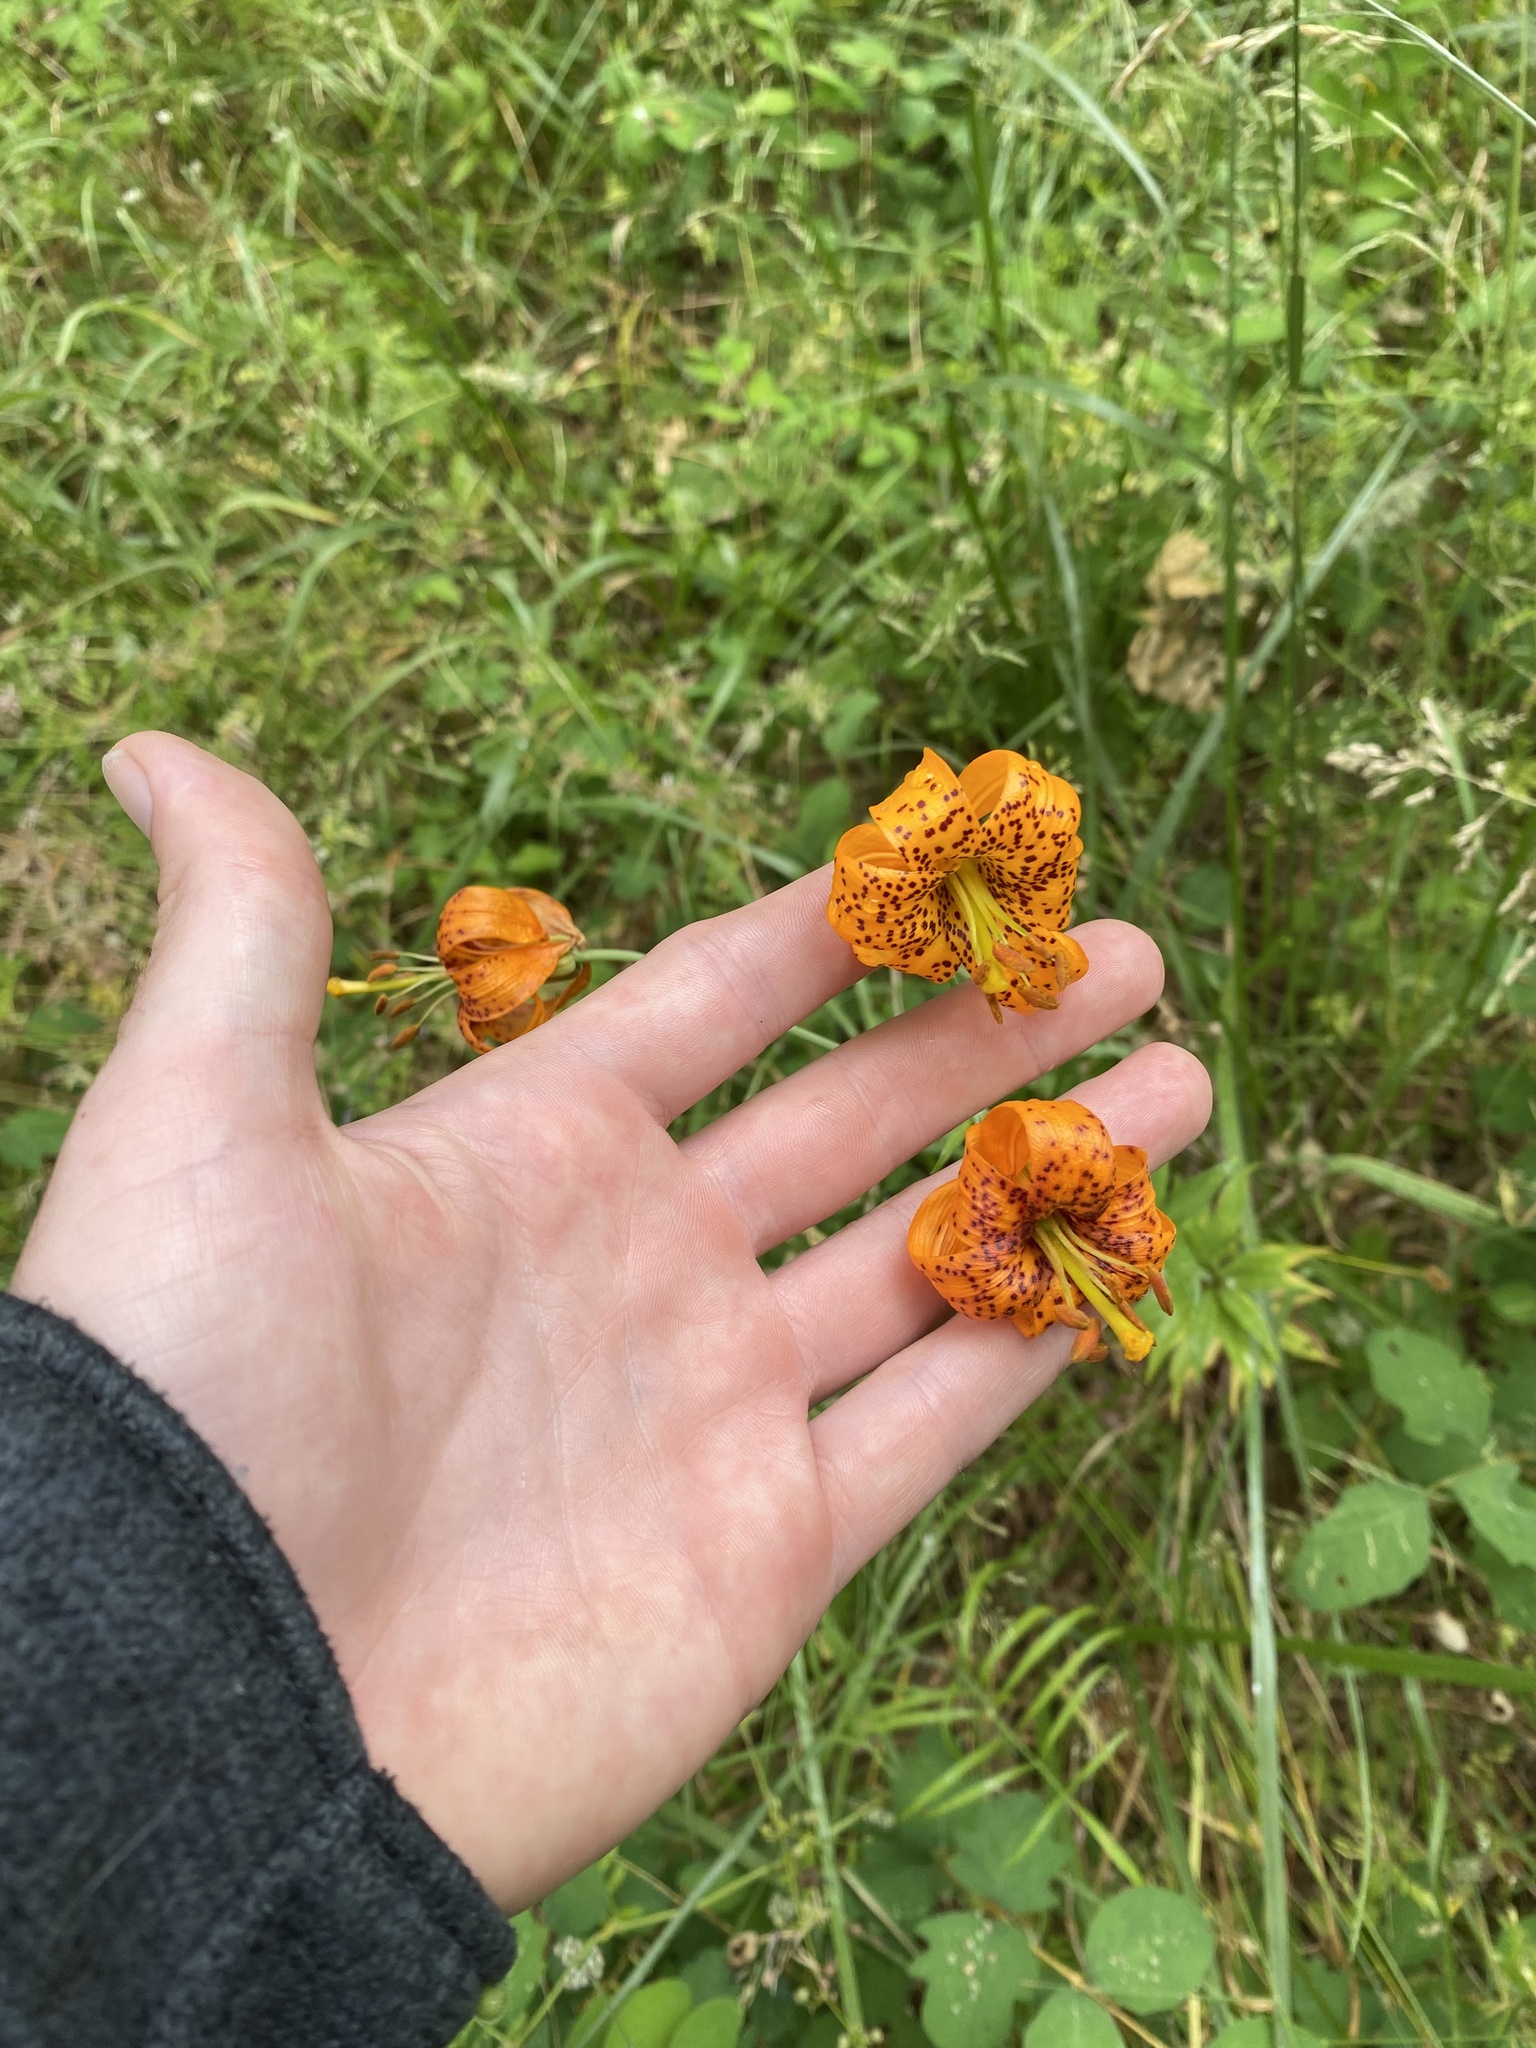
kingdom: Plantae
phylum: Tracheophyta
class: Liliopsida
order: Liliales
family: Liliaceae
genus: Lilium
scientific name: Lilium columbianum
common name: Columbia lily
